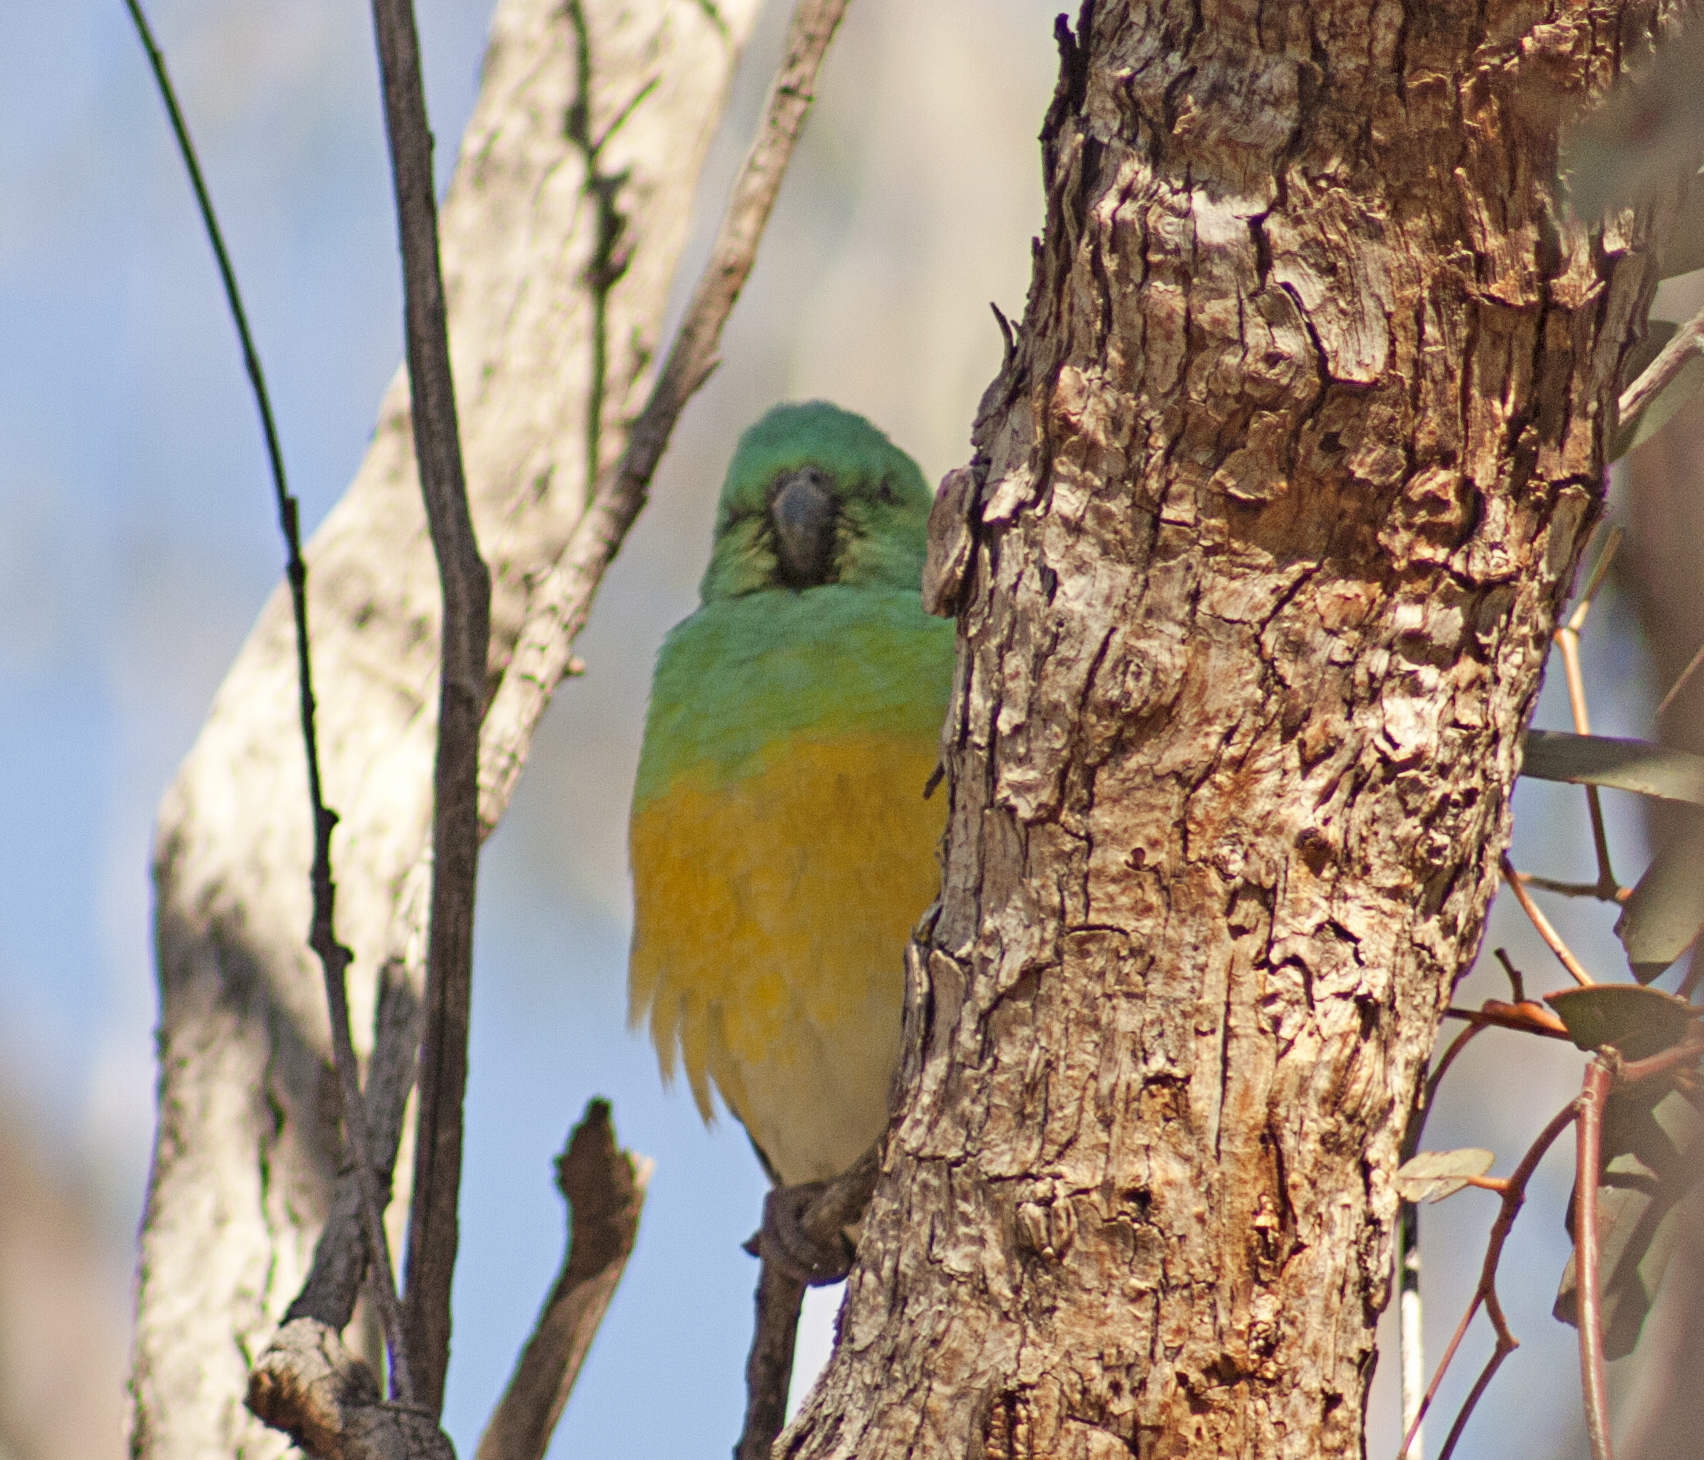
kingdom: Animalia
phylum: Chordata
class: Aves
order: Psittaciformes
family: Psittacidae
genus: Psephotus
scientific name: Psephotus haematonotus
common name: Red-rumped parrot
